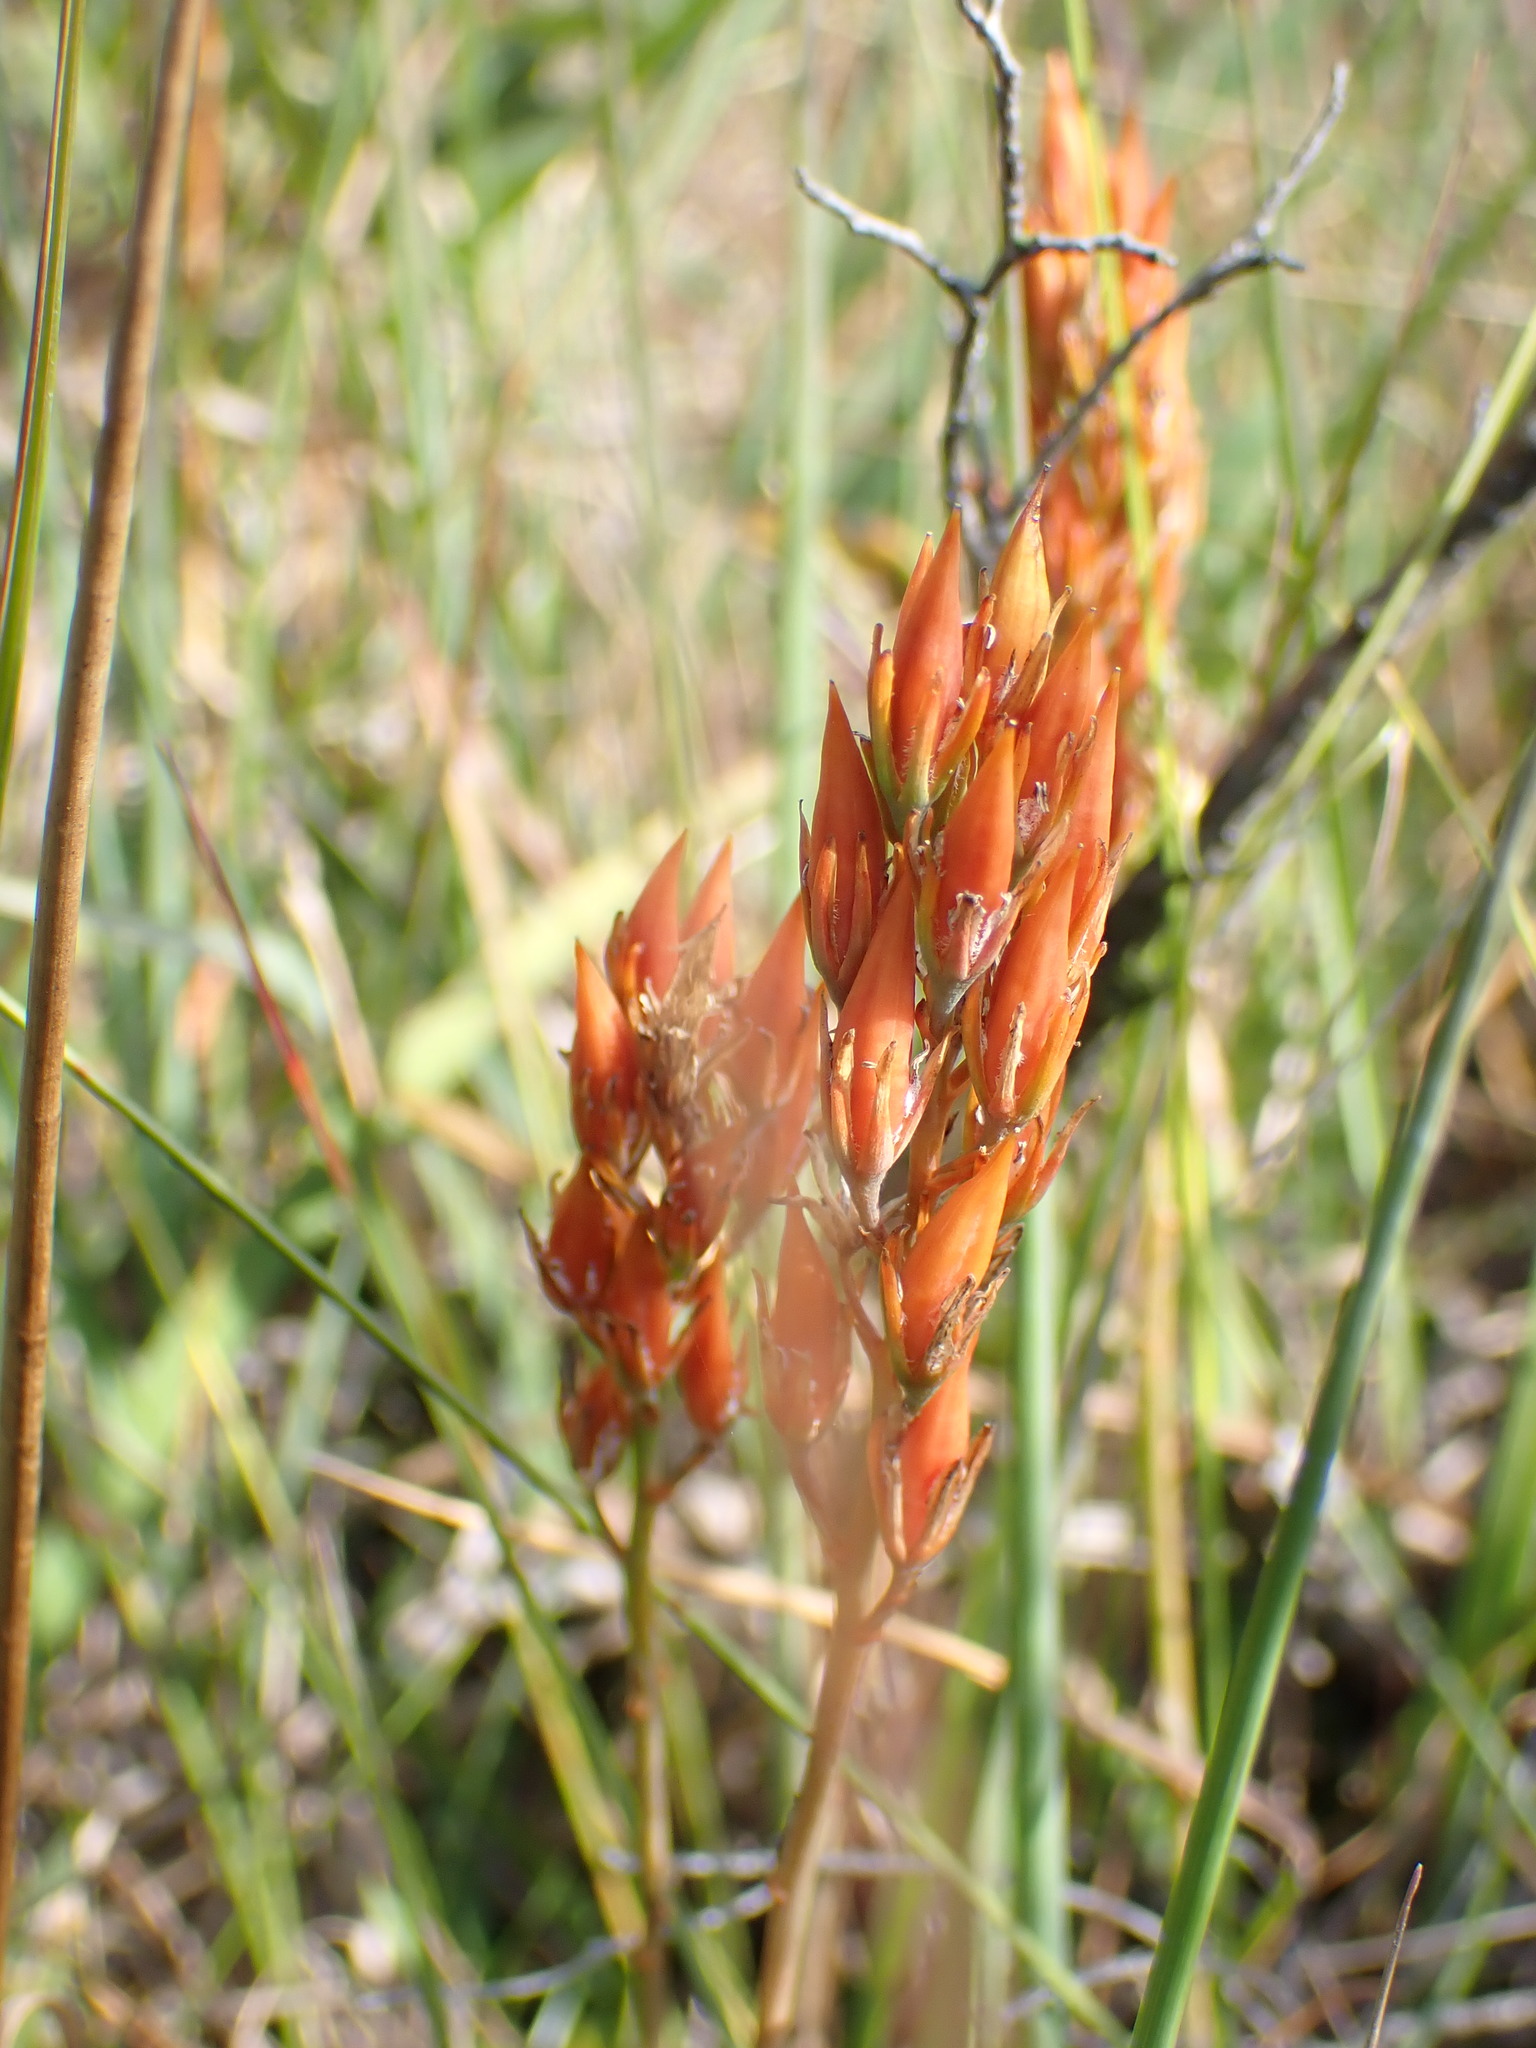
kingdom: Plantae
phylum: Tracheophyta
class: Liliopsida
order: Dioscoreales
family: Nartheciaceae
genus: Narthecium
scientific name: Narthecium ossifragum
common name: Bog asphodel
